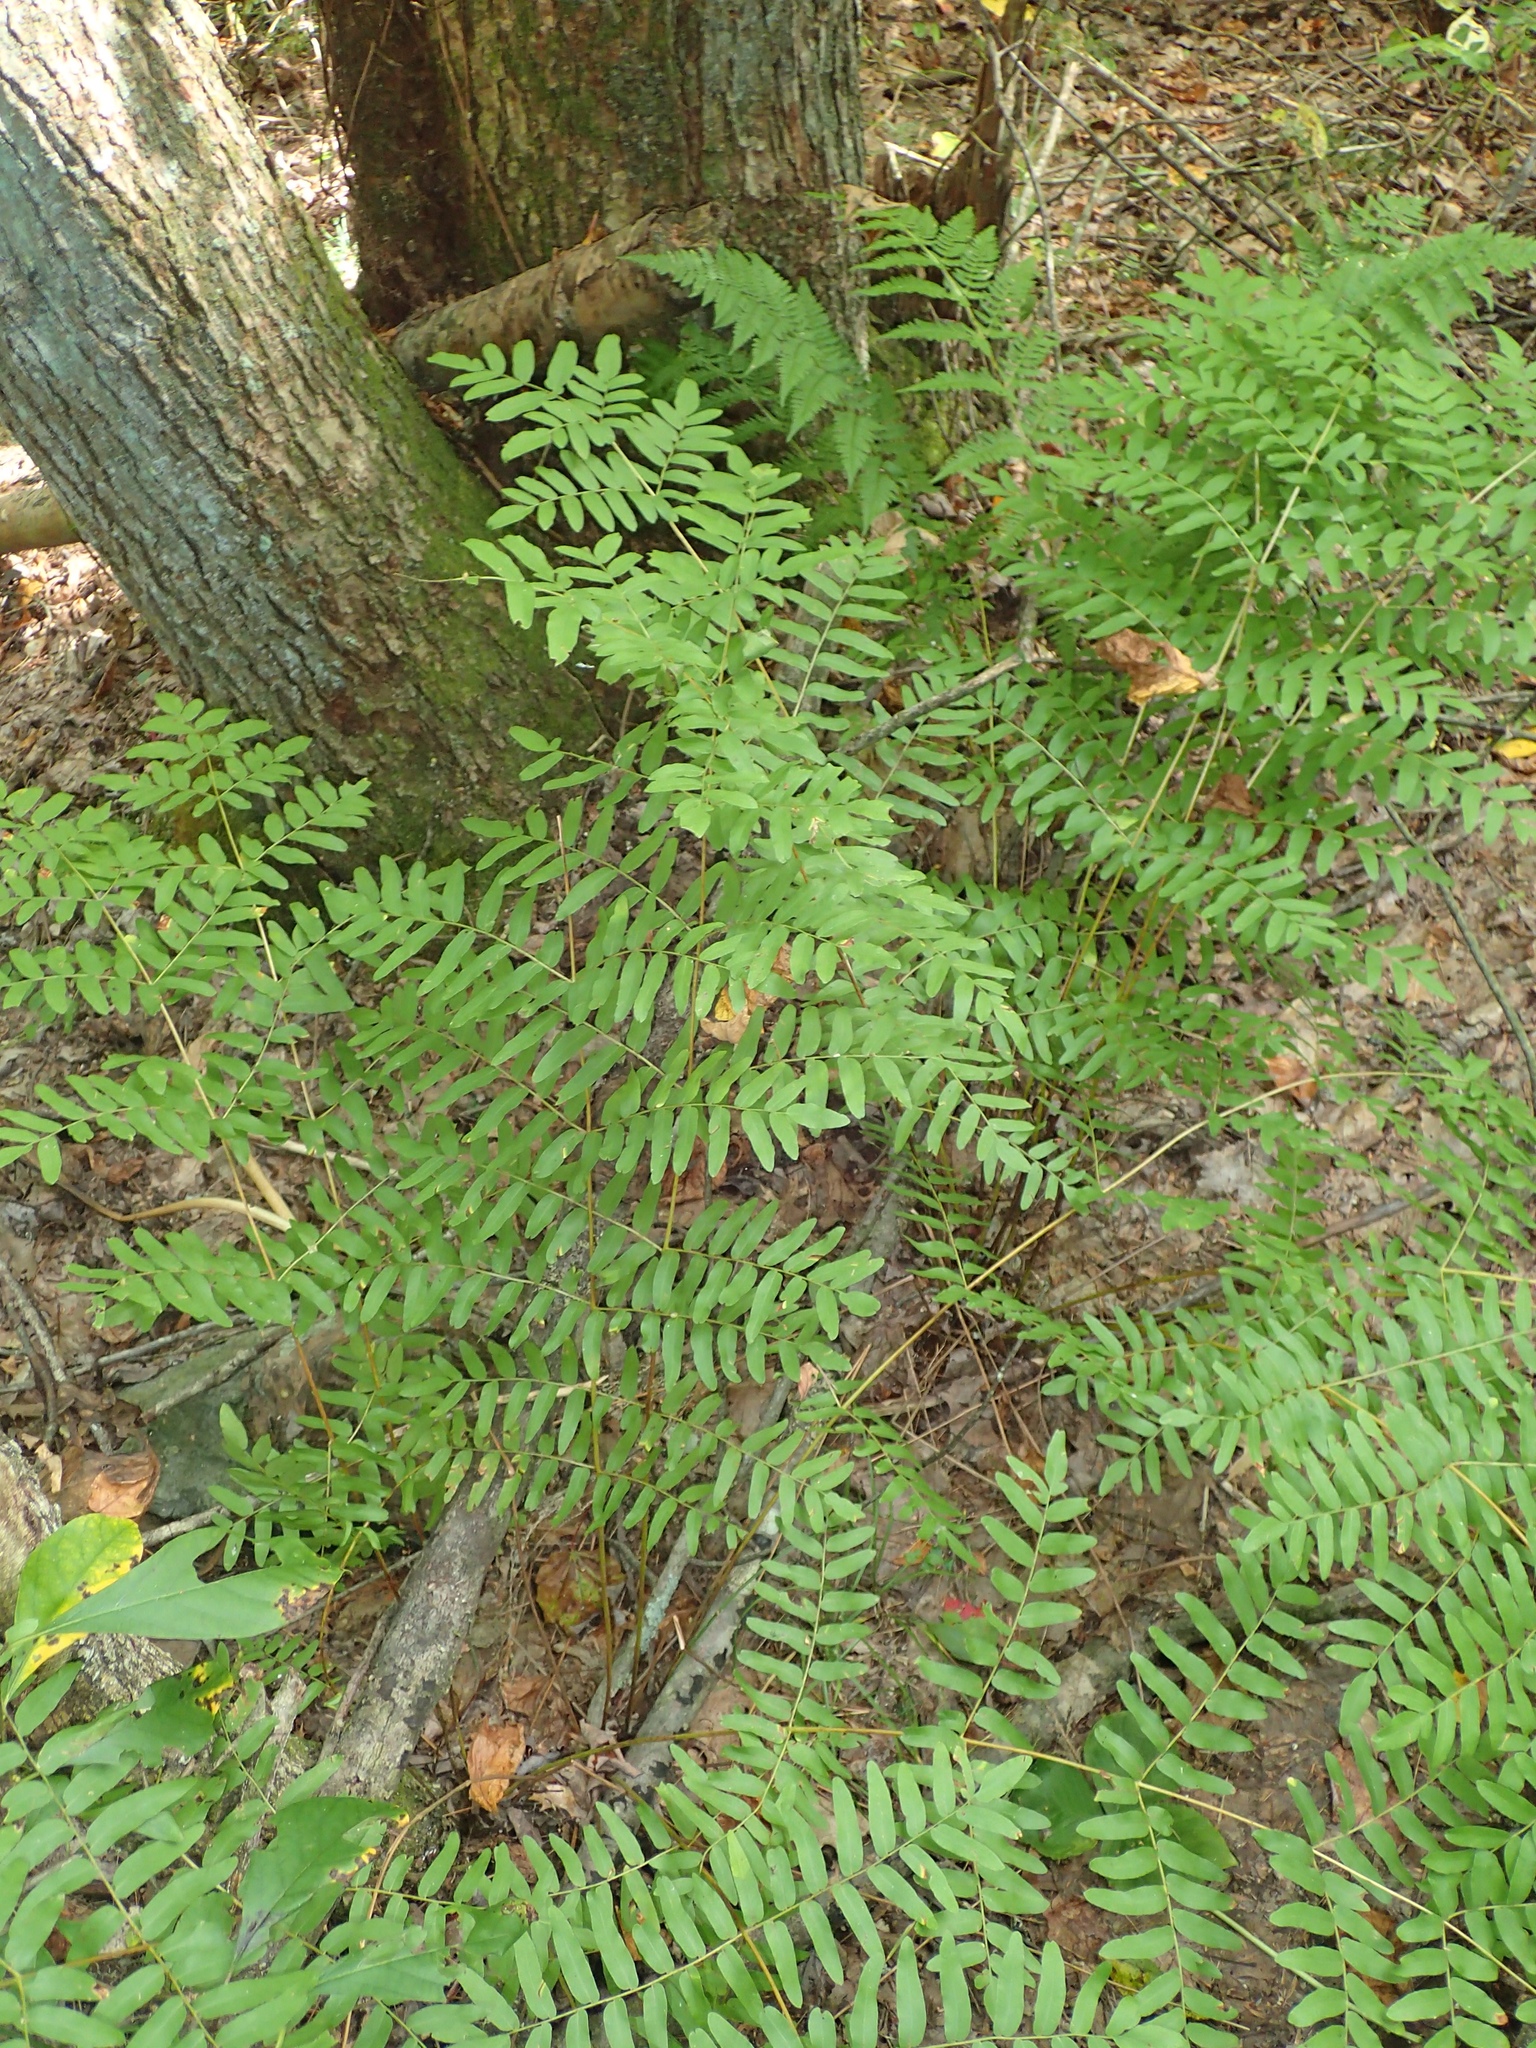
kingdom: Plantae
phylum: Tracheophyta
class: Polypodiopsida
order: Osmundales
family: Osmundaceae
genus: Osmunda
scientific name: Osmunda spectabilis
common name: American royal fern
